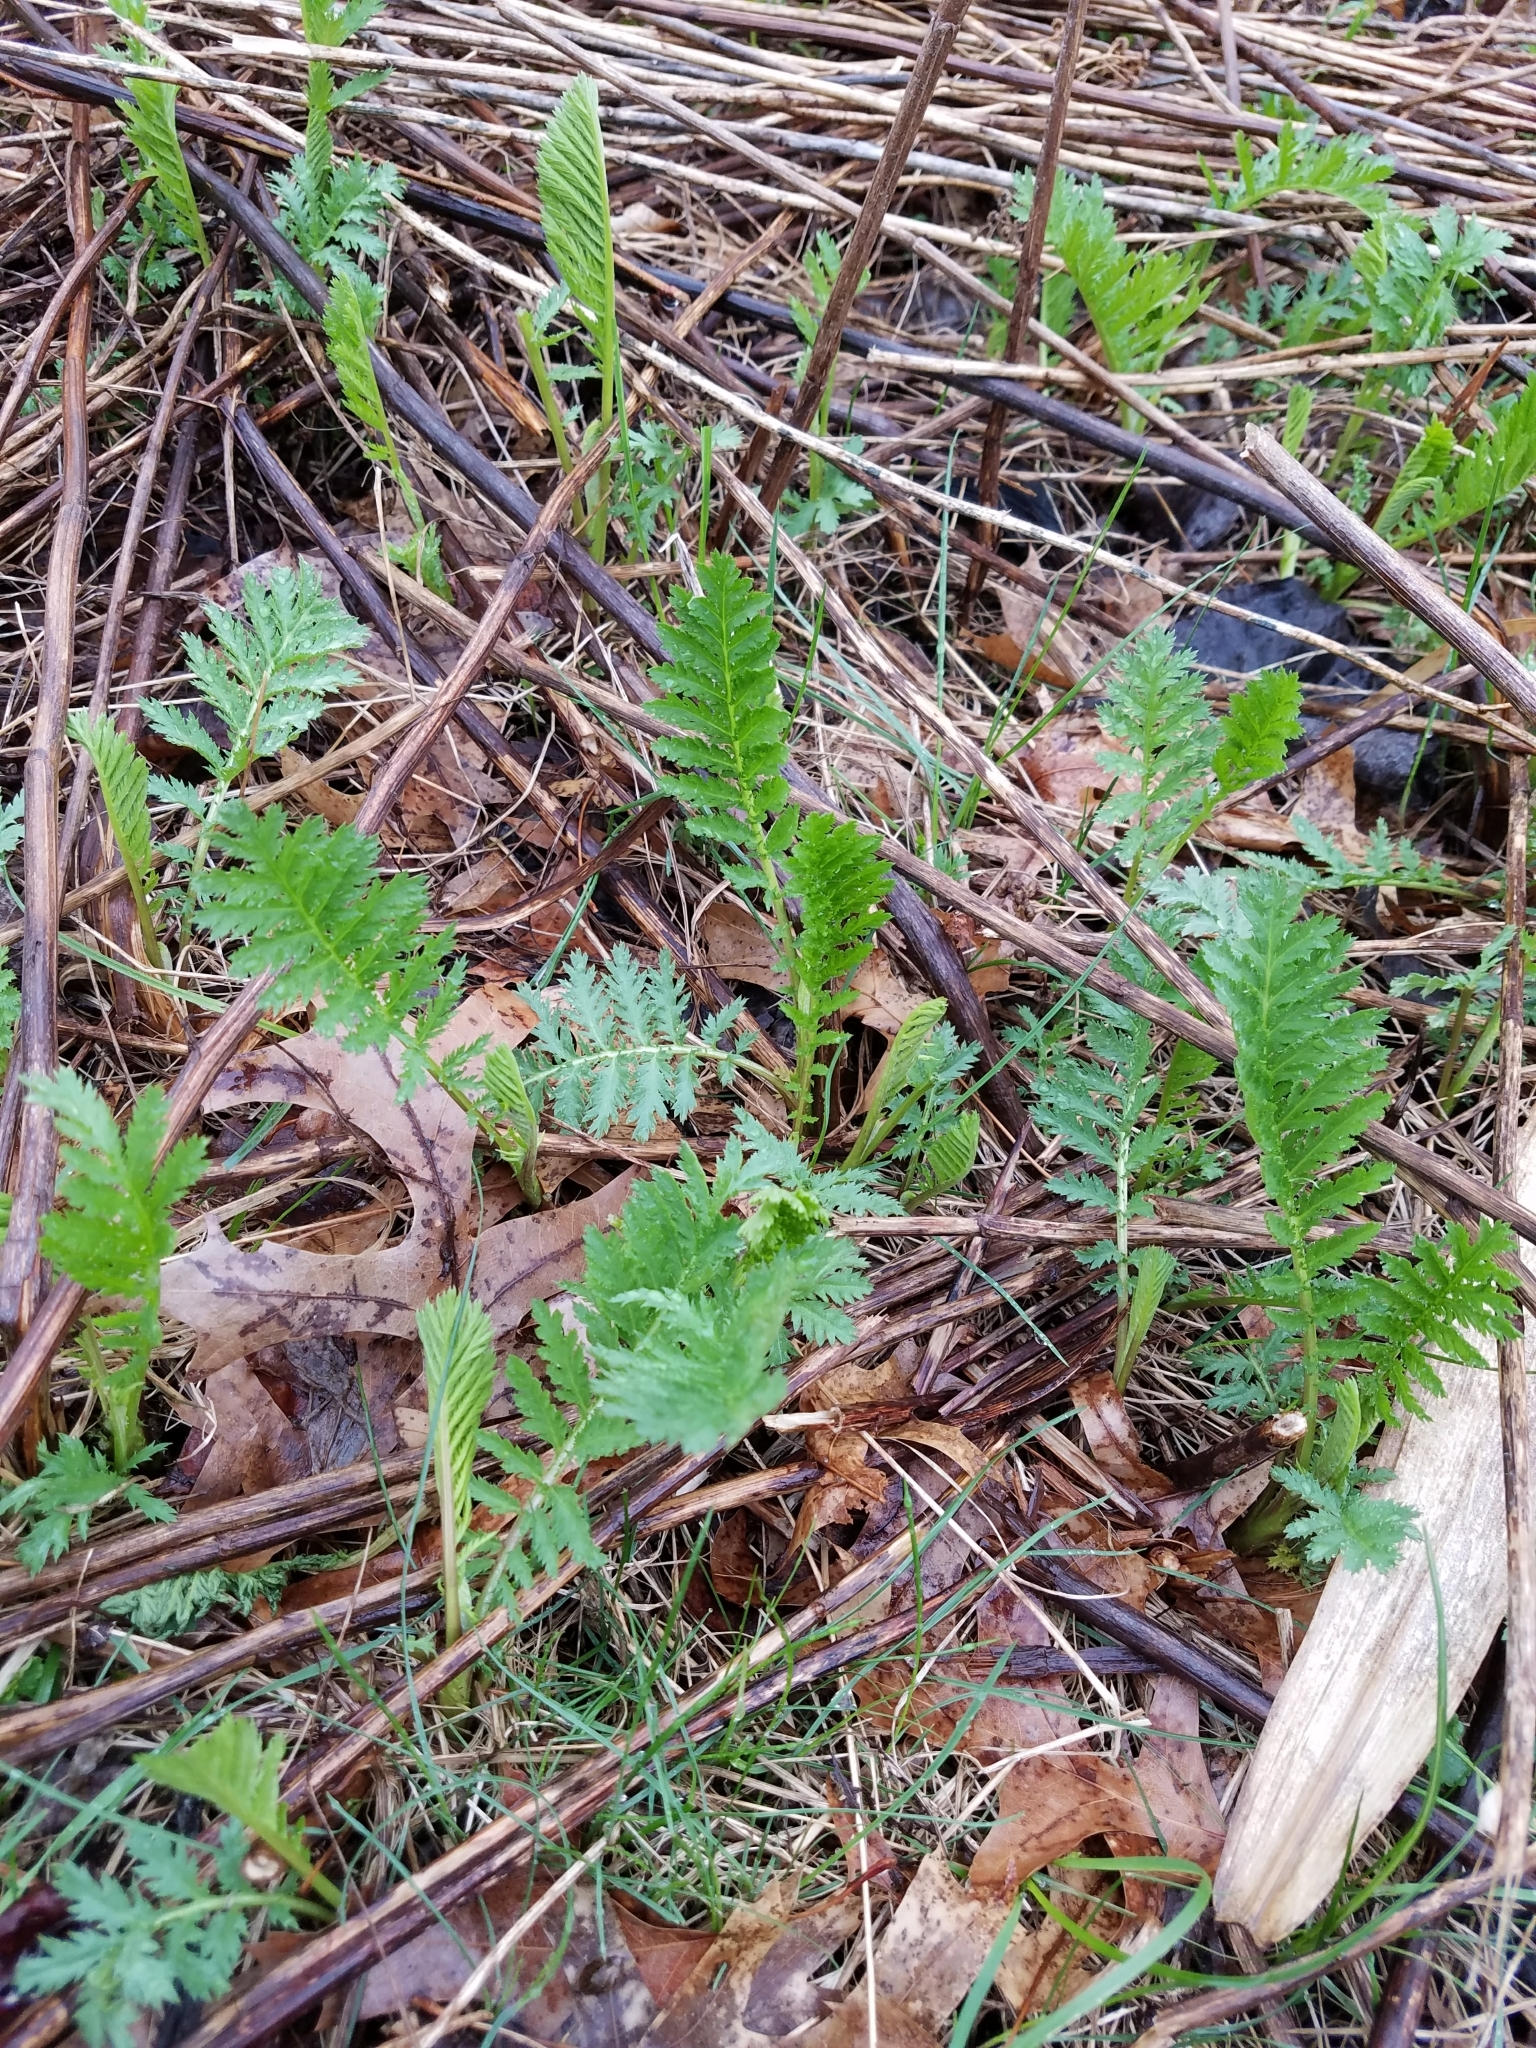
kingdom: Plantae
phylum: Tracheophyta
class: Magnoliopsida
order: Asterales
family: Asteraceae
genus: Tanacetum
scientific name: Tanacetum vulgare
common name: Common tansy
